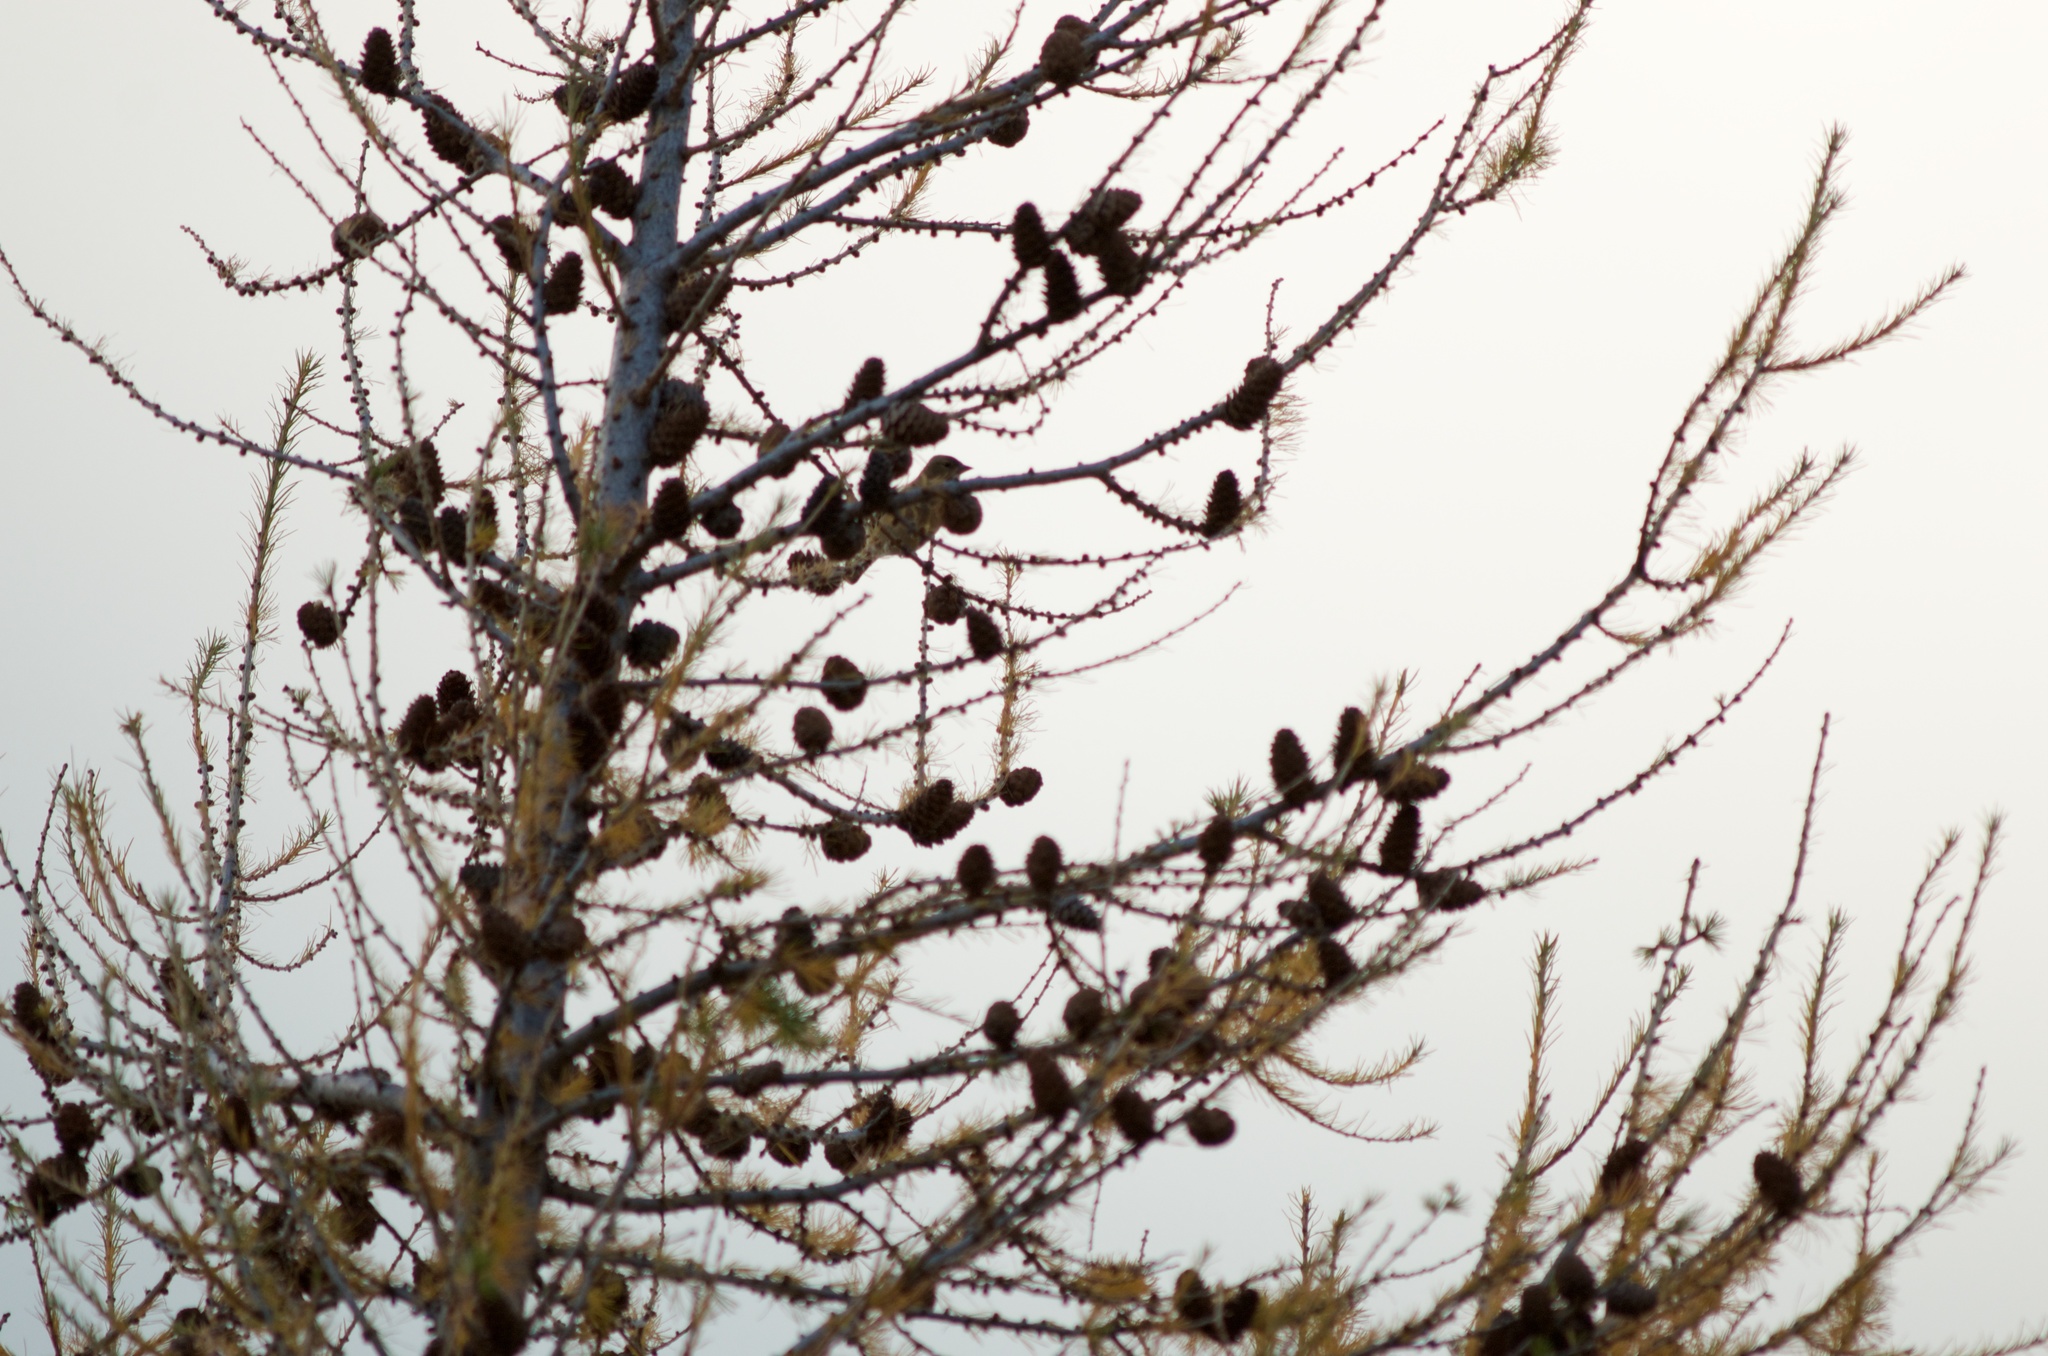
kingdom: Plantae
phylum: Tracheophyta
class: Pinopsida
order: Pinales
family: Pinaceae
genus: Larix
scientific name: Larix decidua
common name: European larch
